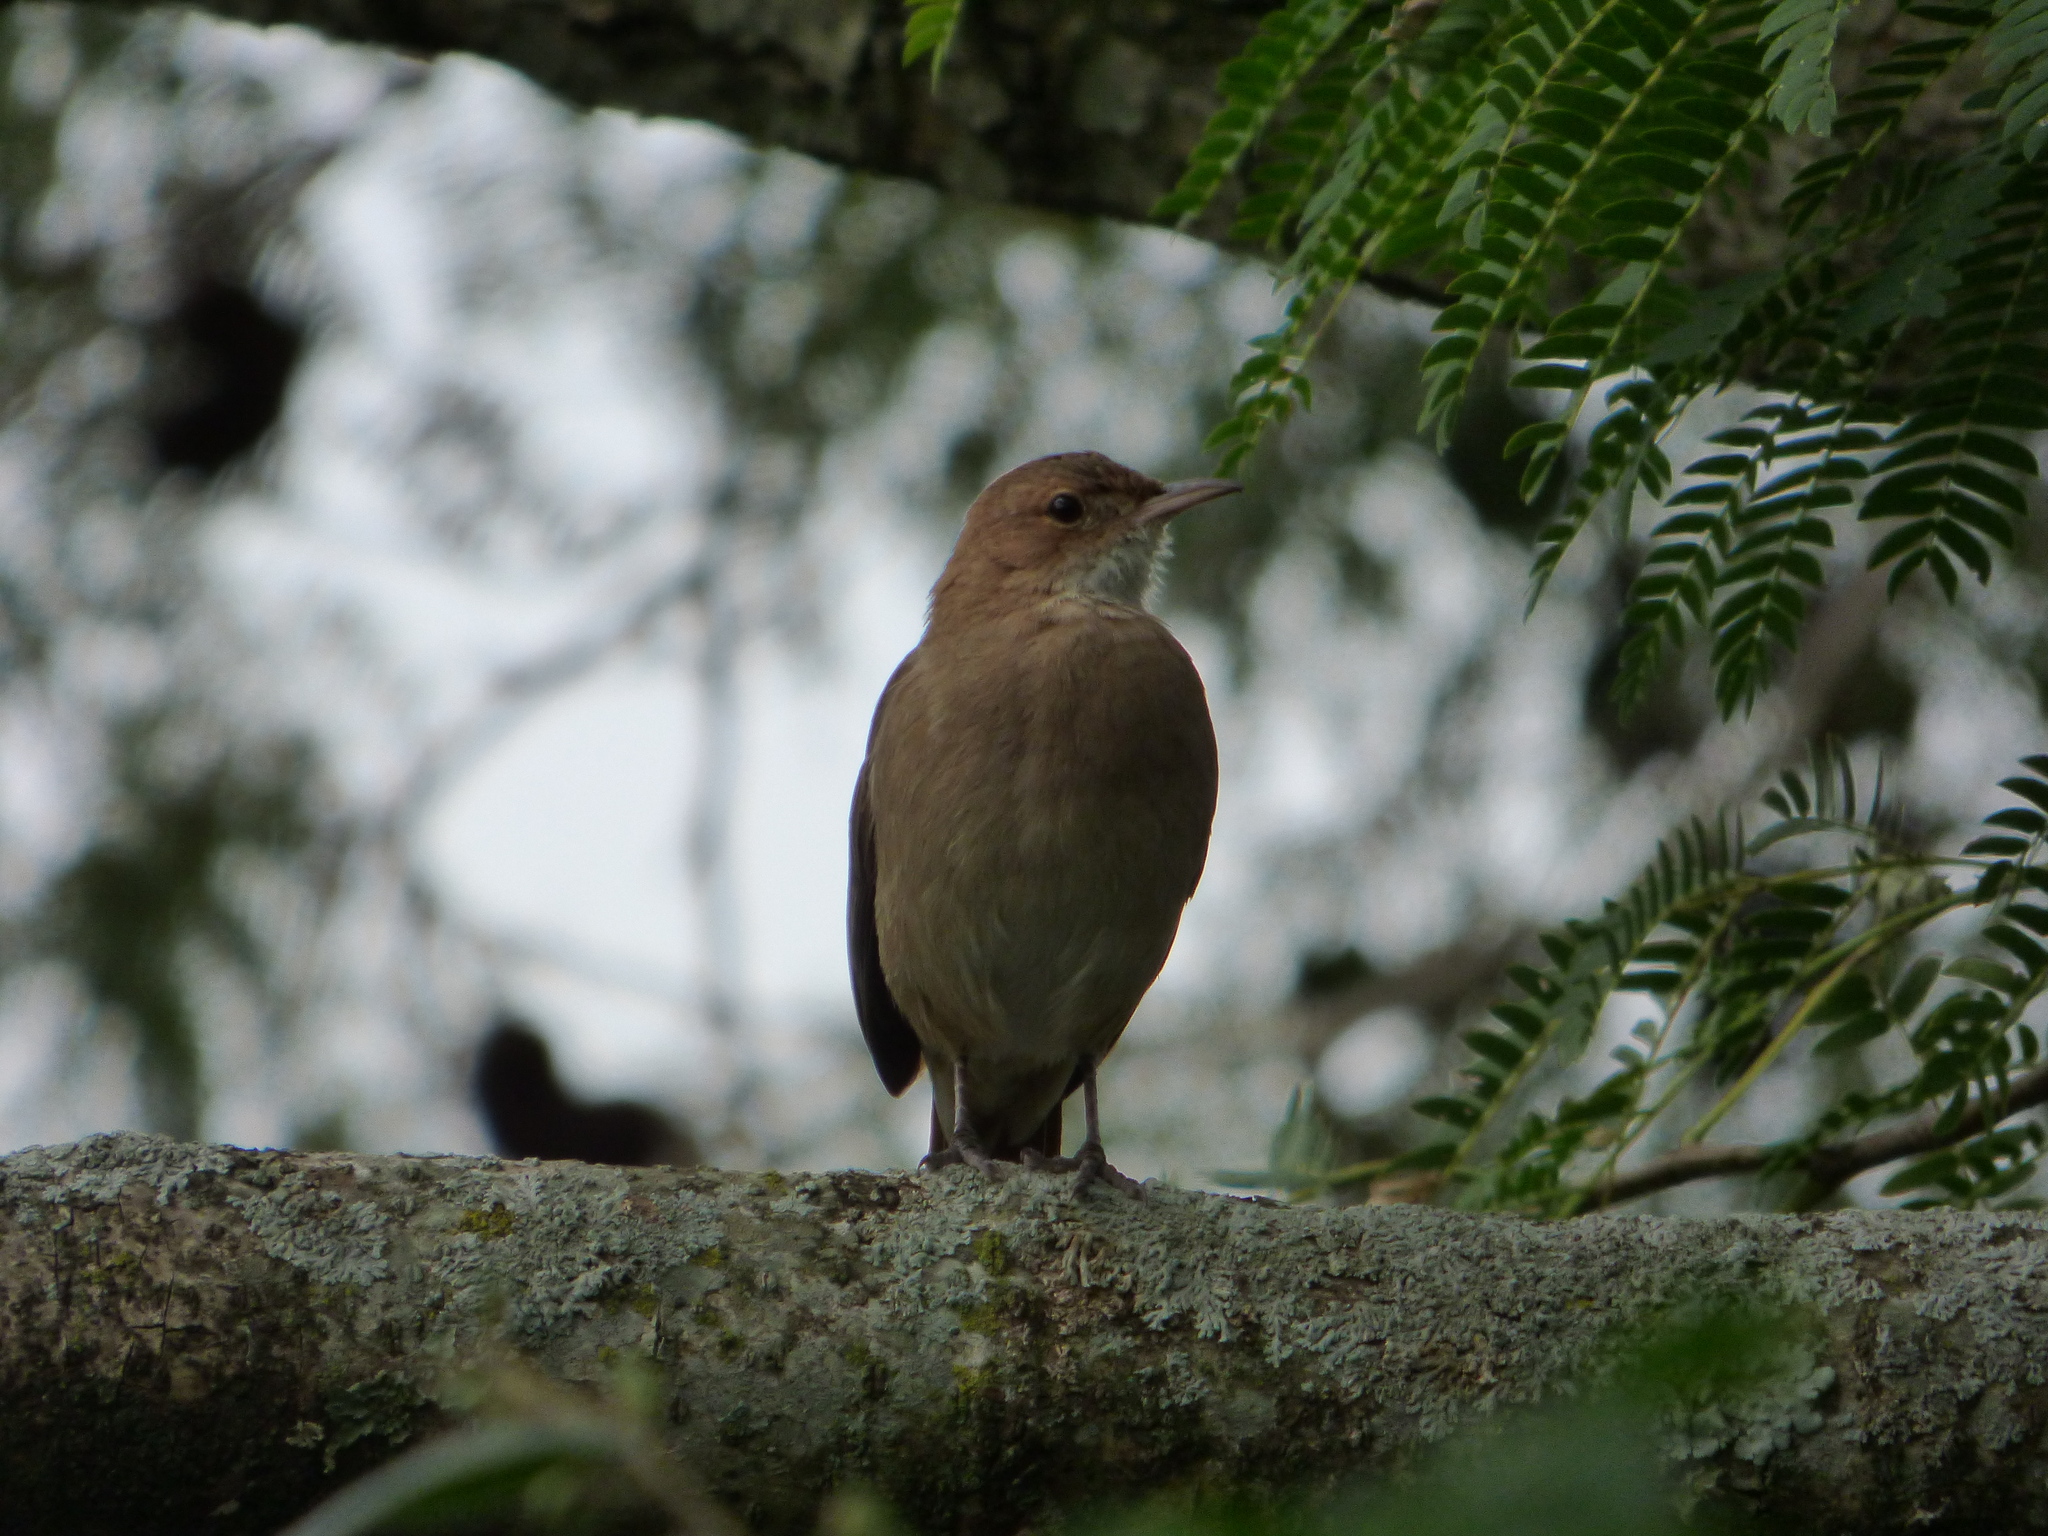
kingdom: Animalia
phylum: Chordata
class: Aves
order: Passeriformes
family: Furnariidae
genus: Furnarius
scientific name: Furnarius rufus
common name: Rufous hornero
